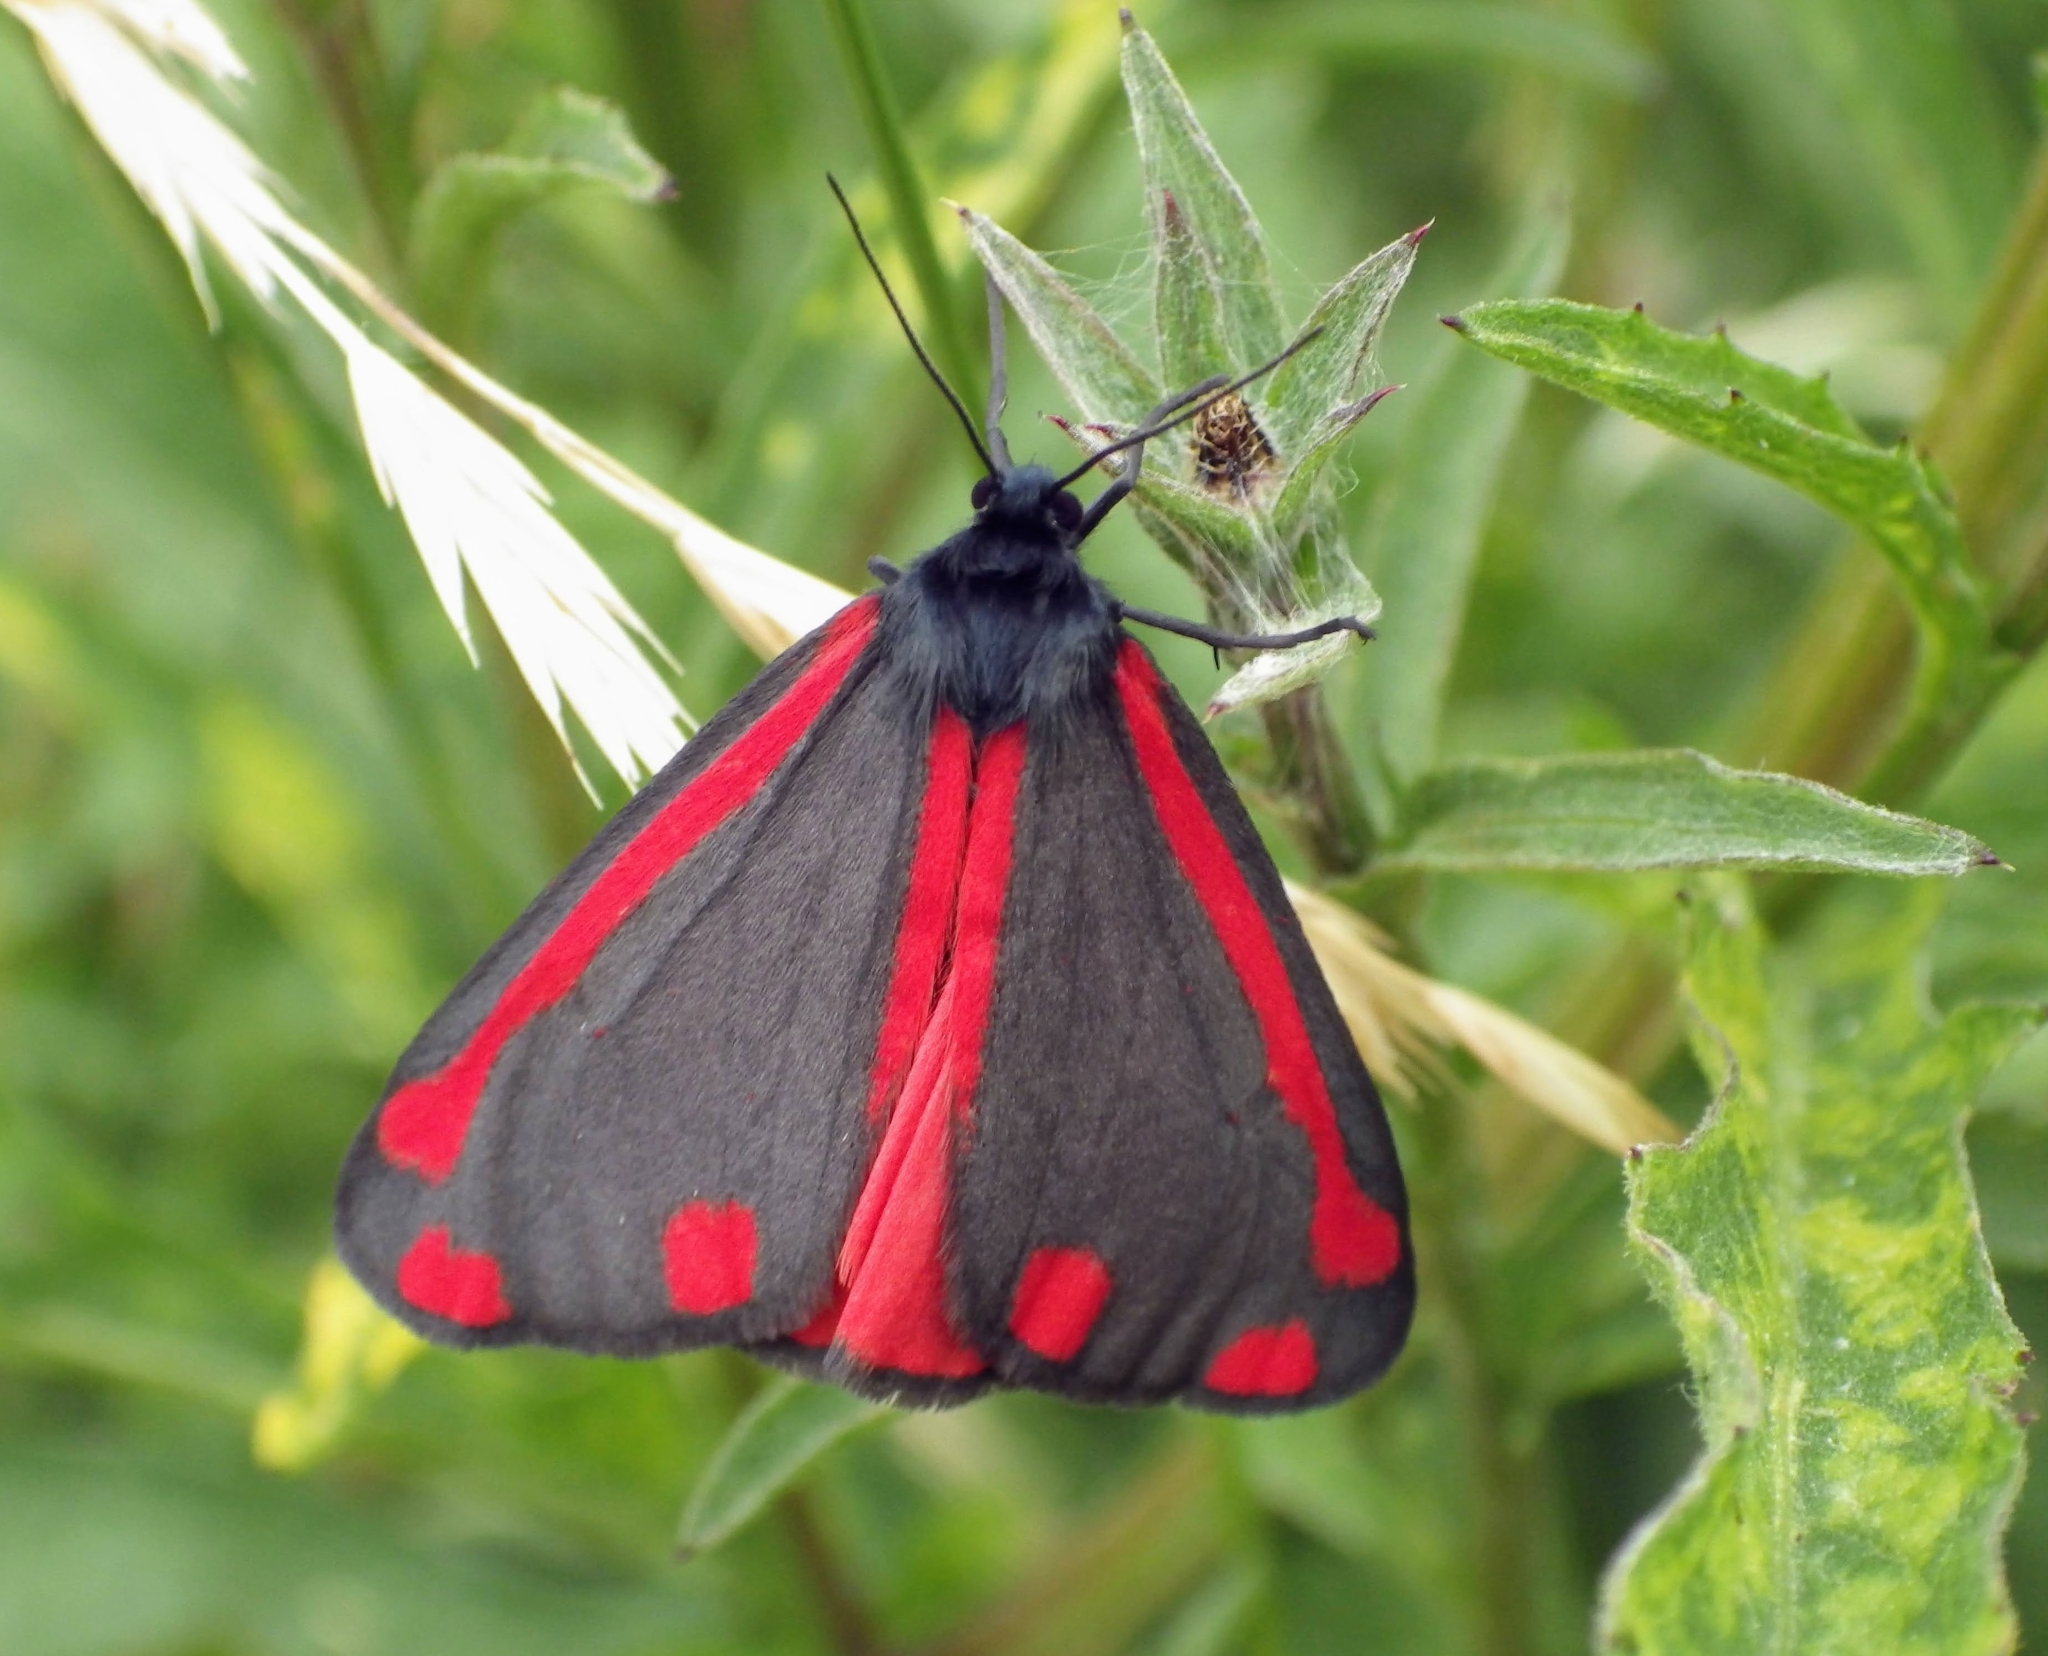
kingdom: Animalia
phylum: Arthropoda
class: Insecta
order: Lepidoptera
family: Erebidae
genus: Tyria
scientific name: Tyria jacobaeae
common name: Cinnabar
